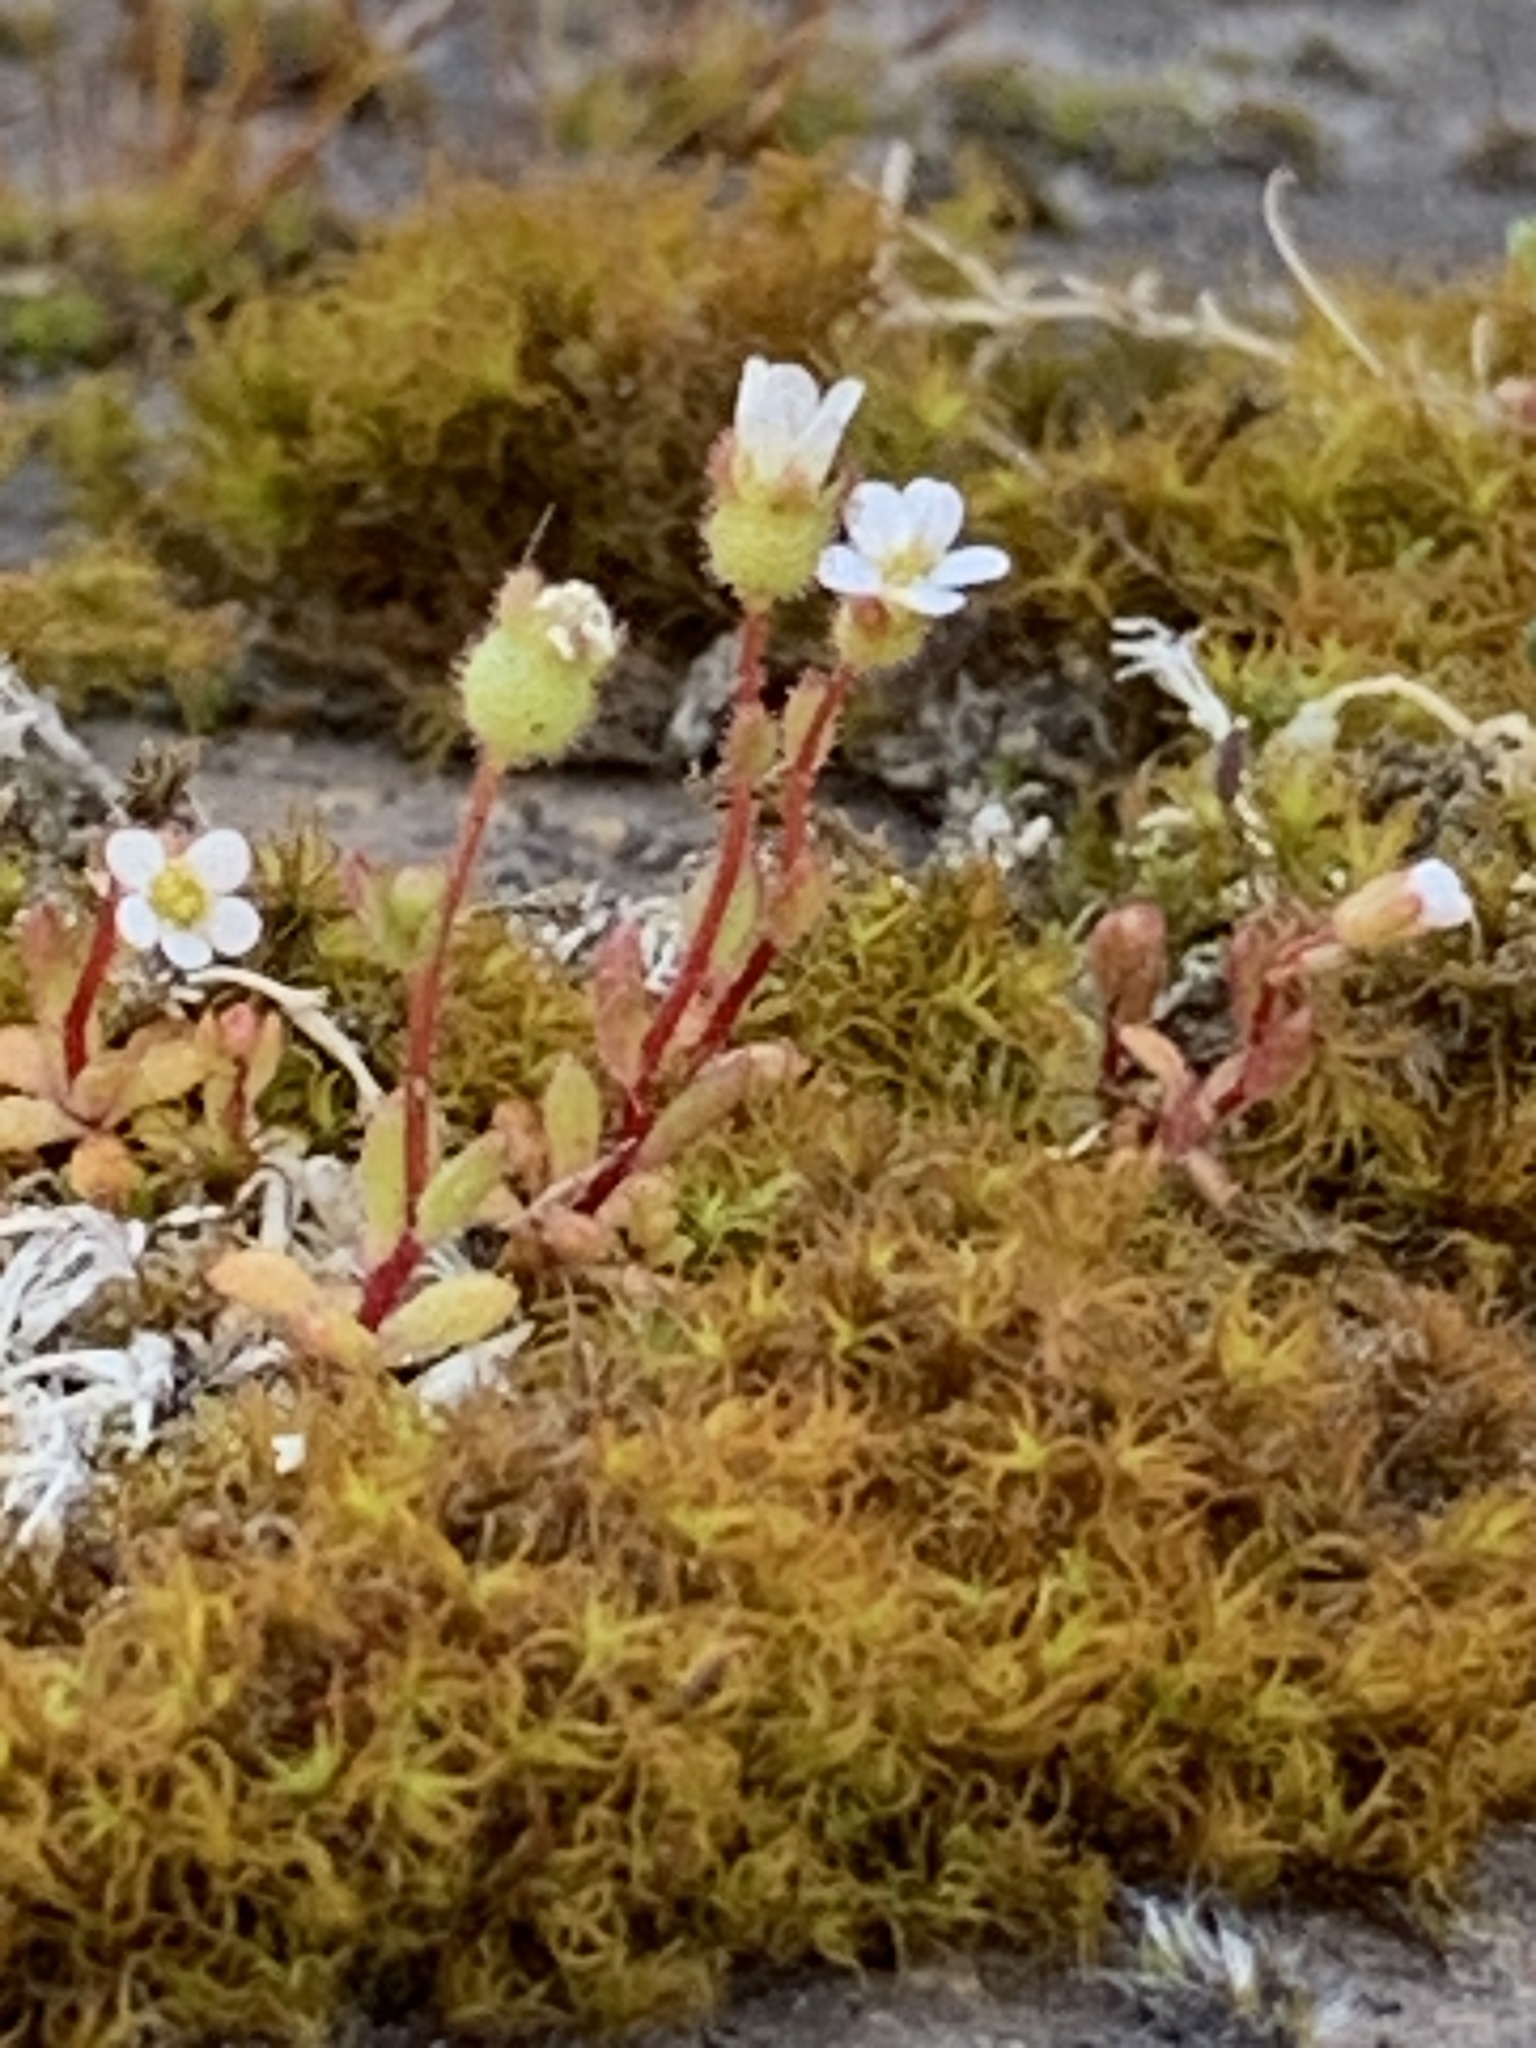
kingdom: Plantae
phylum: Tracheophyta
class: Magnoliopsida
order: Saxifragales
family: Saxifragaceae
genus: Saxifraga
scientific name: Saxifraga tridactylites
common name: Rue-leaved saxifrage
